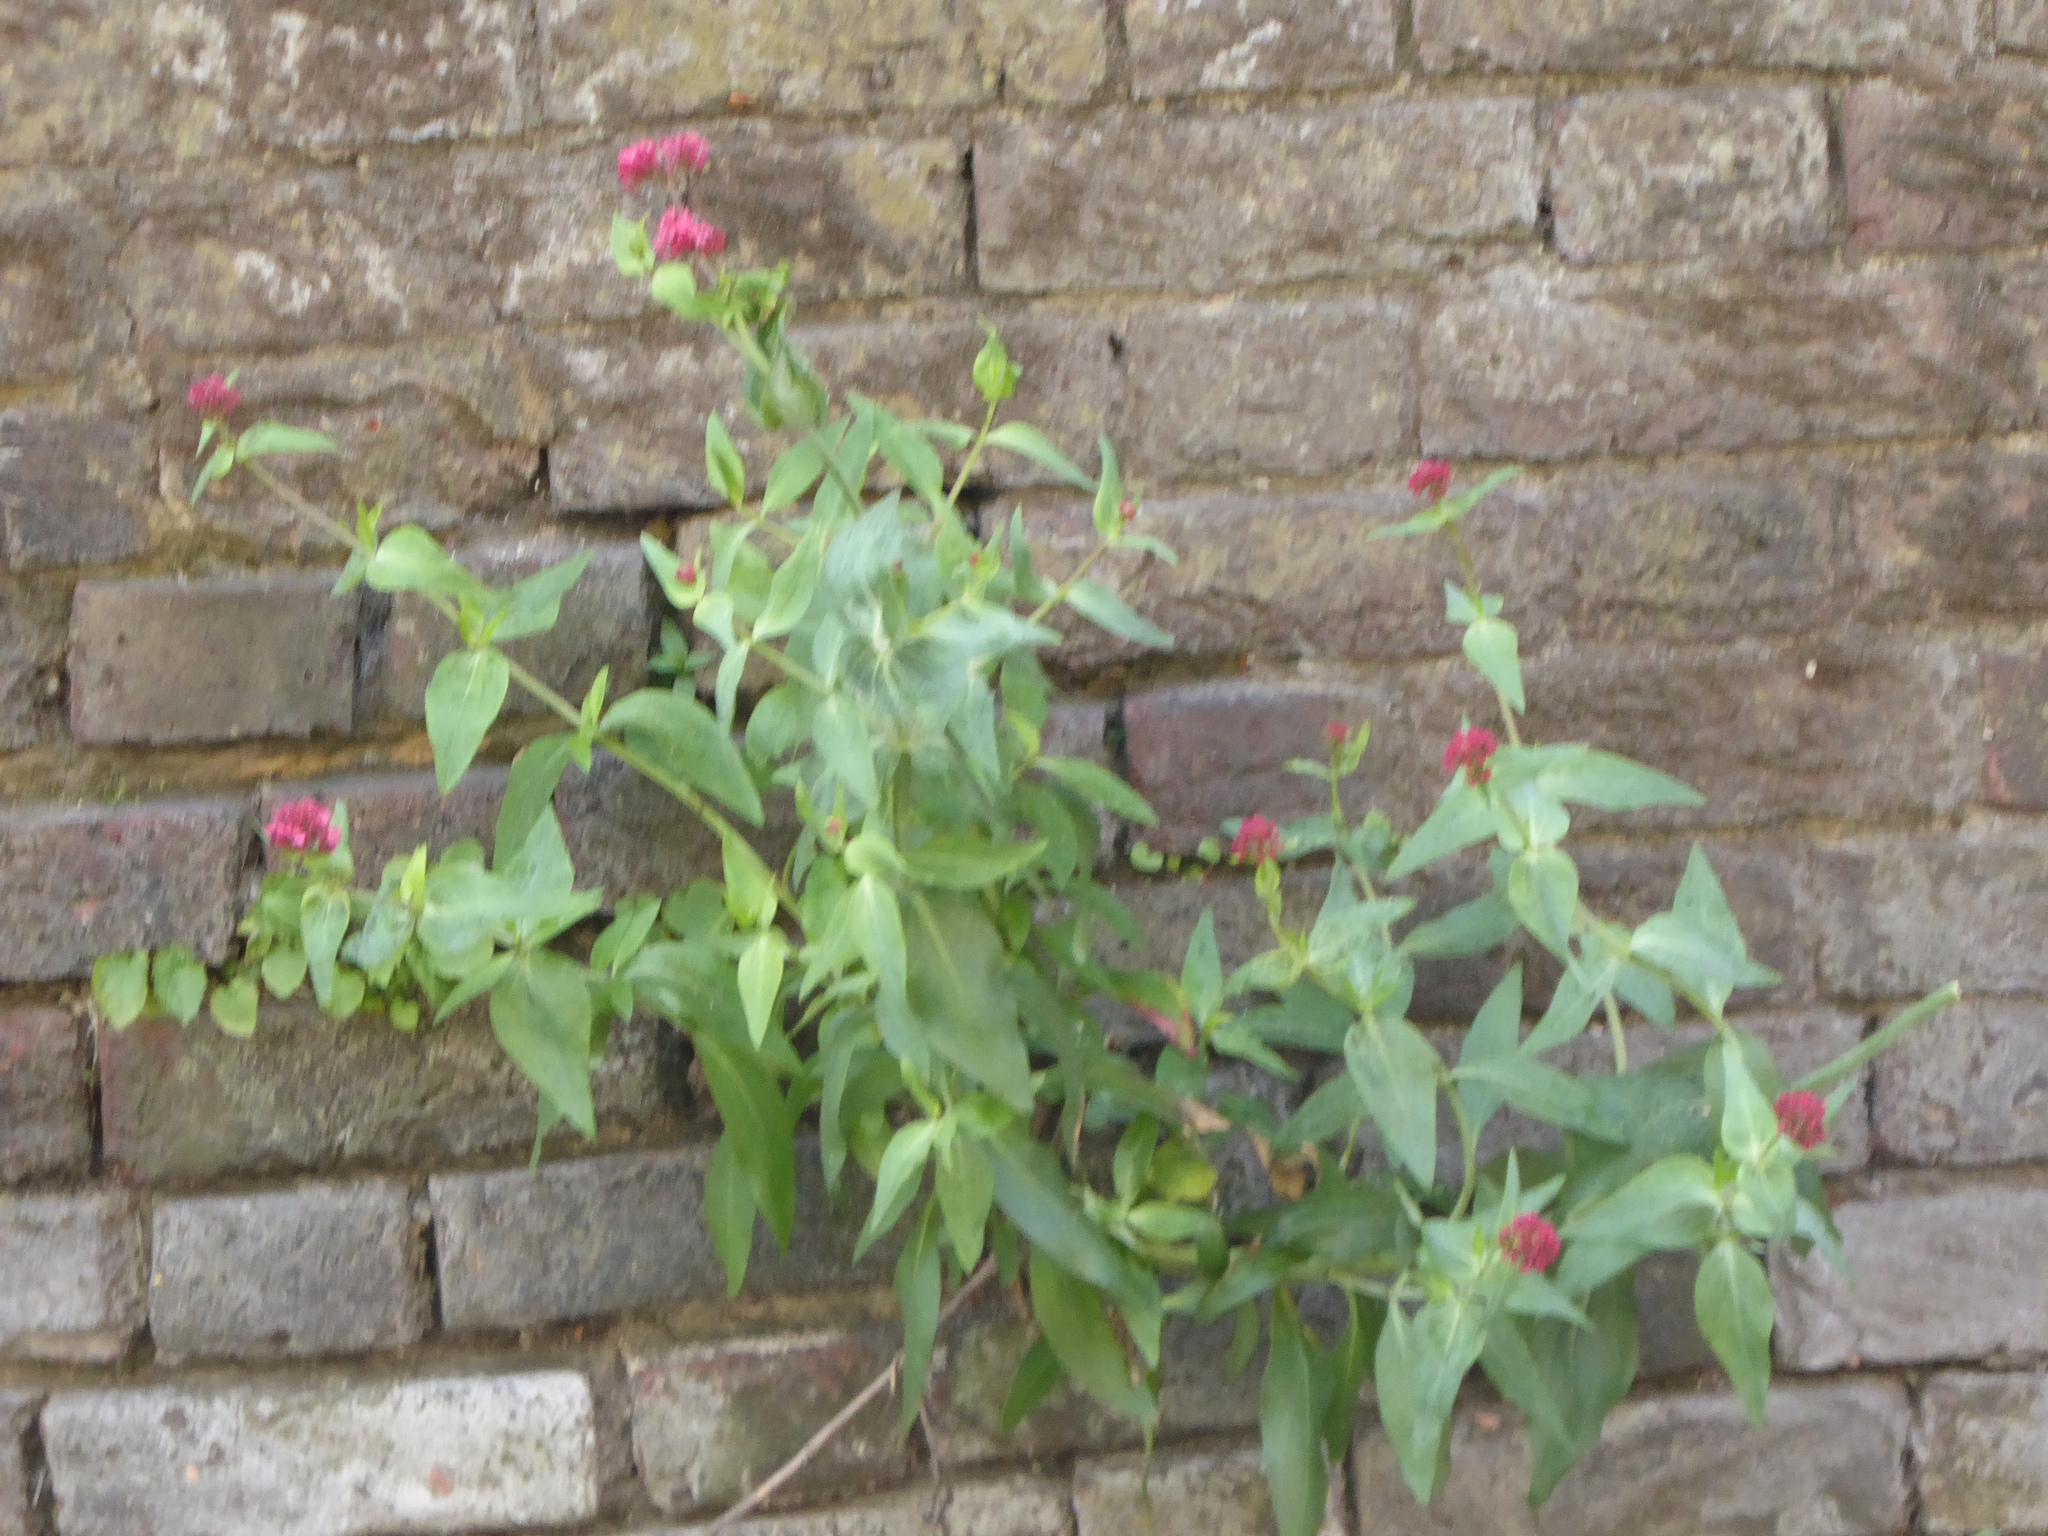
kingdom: Plantae
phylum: Tracheophyta
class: Magnoliopsida
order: Dipsacales
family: Caprifoliaceae
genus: Centranthus
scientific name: Centranthus ruber
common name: Red valerian
